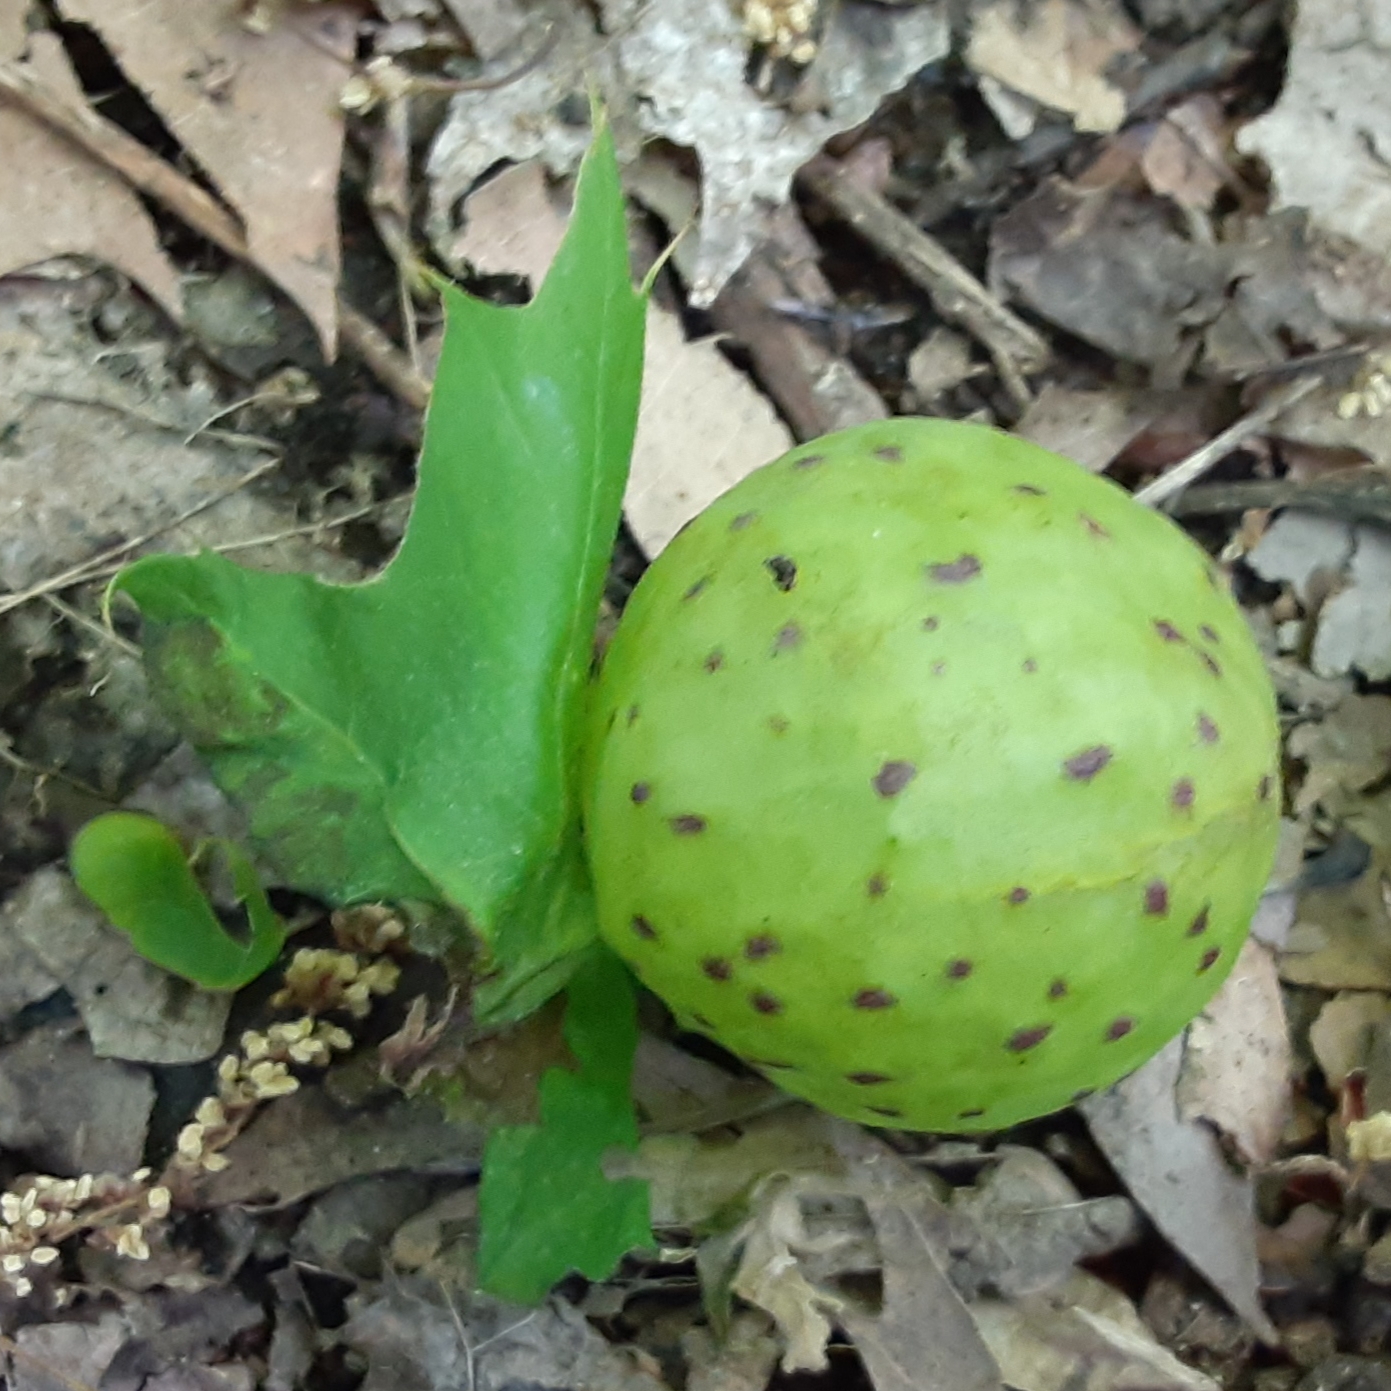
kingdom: Animalia
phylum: Arthropoda
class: Insecta
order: Hymenoptera
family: Cynipidae
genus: Amphibolips
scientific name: Amphibolips
